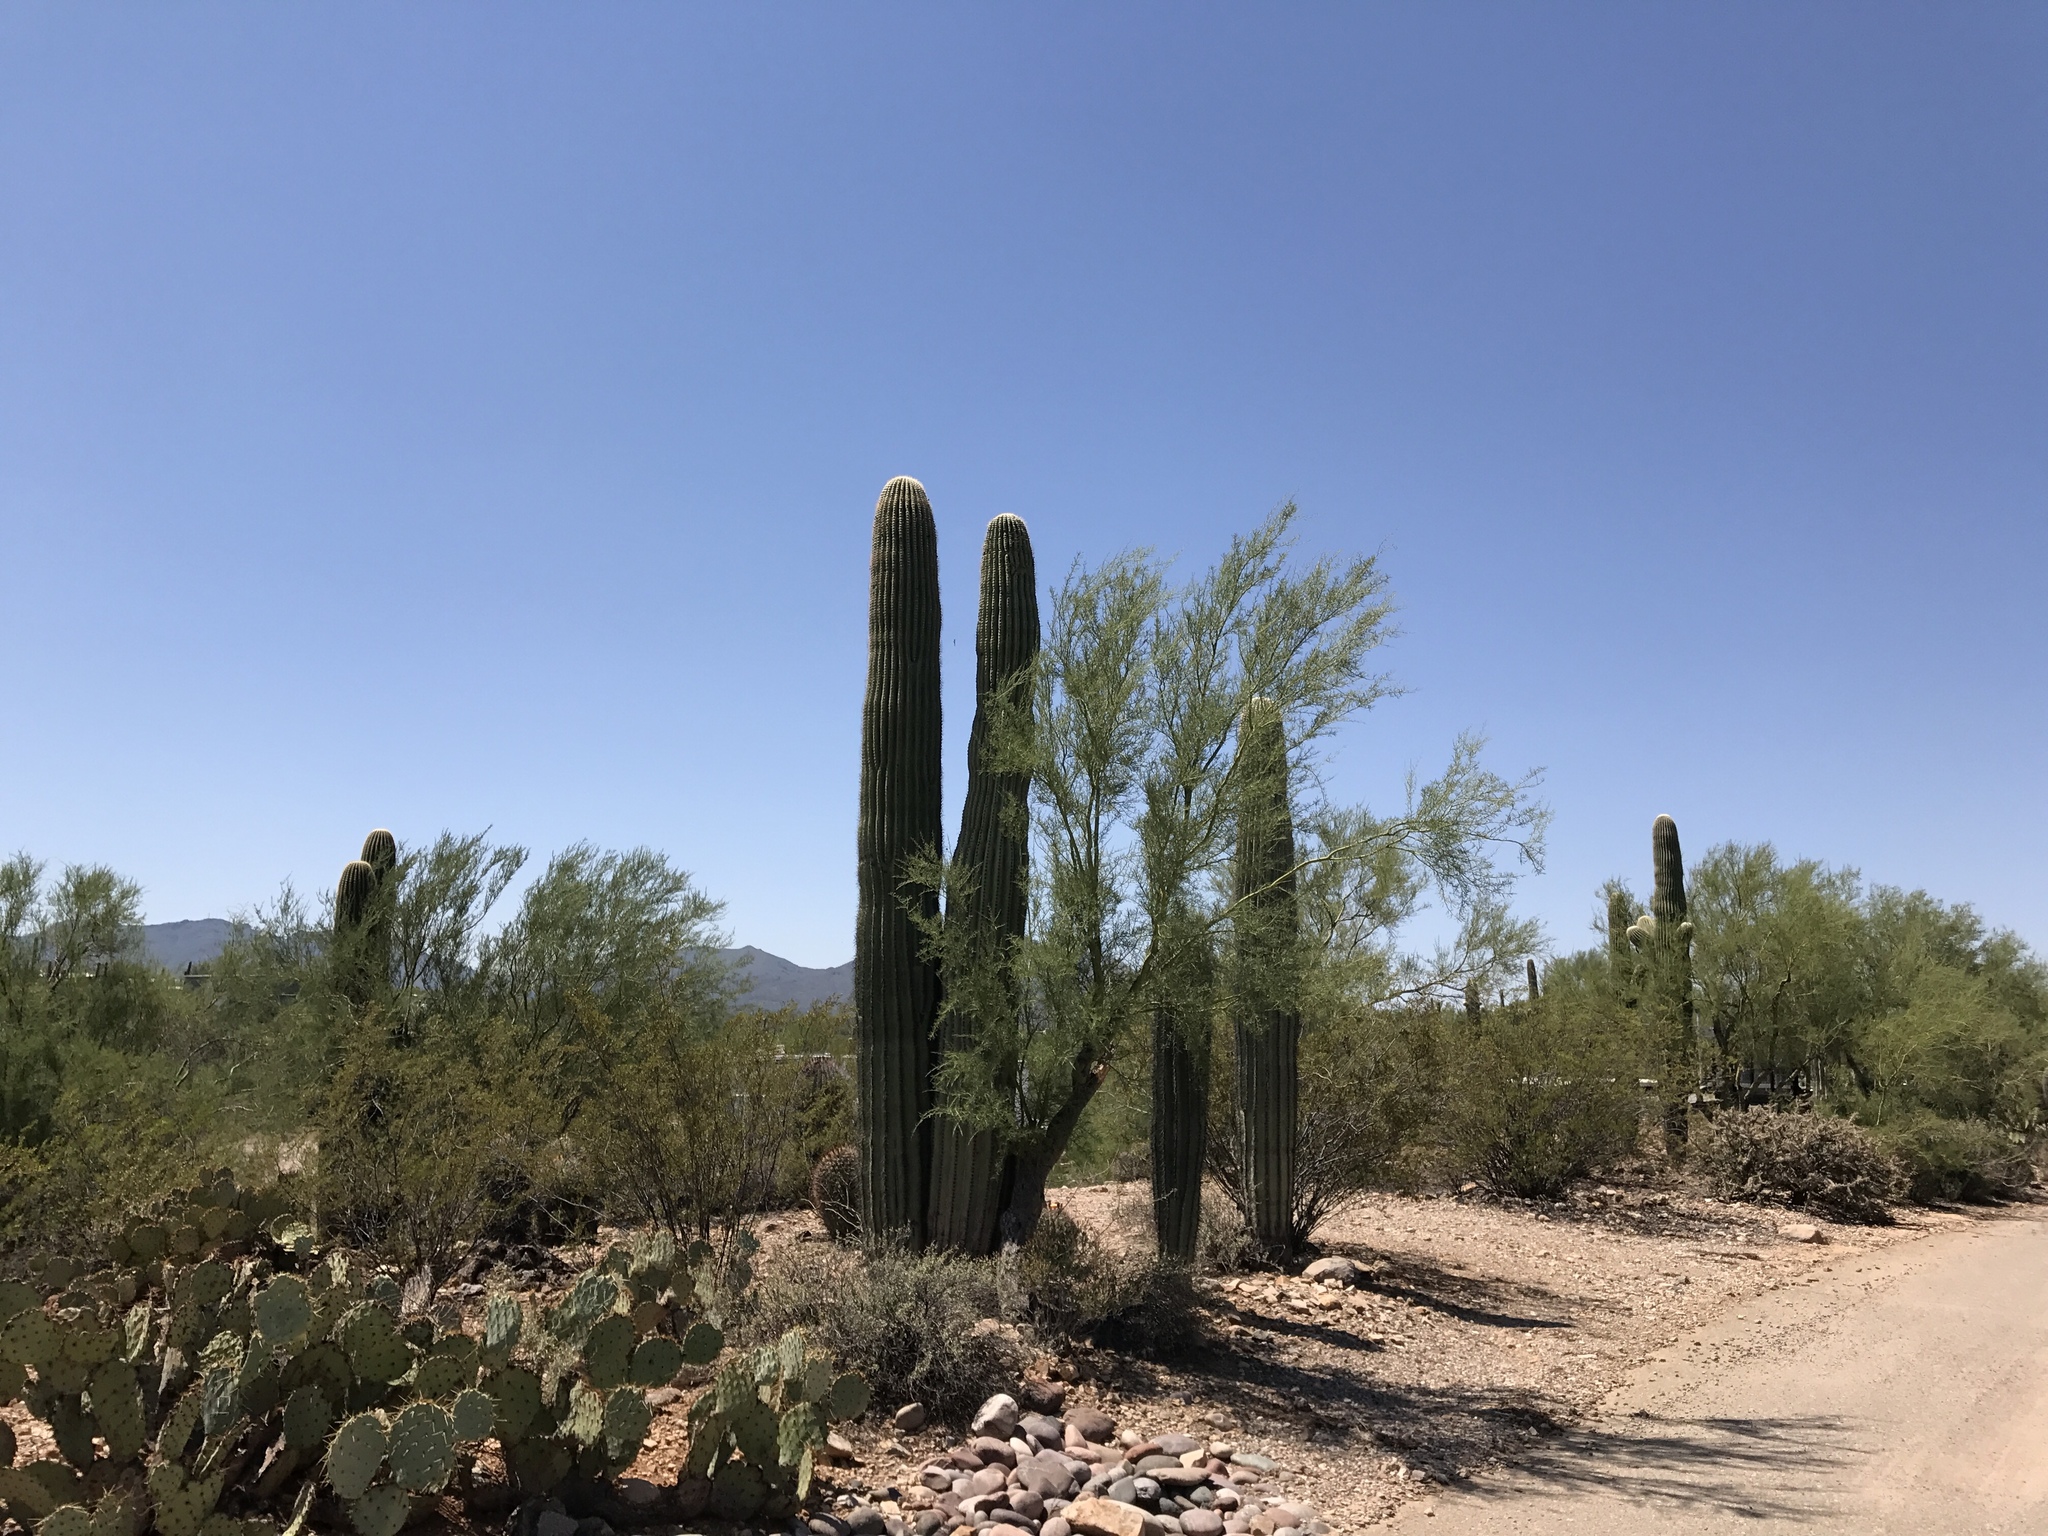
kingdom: Plantae
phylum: Tracheophyta
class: Magnoliopsida
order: Caryophyllales
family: Cactaceae
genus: Carnegiea
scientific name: Carnegiea gigantea
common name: Saguaro
